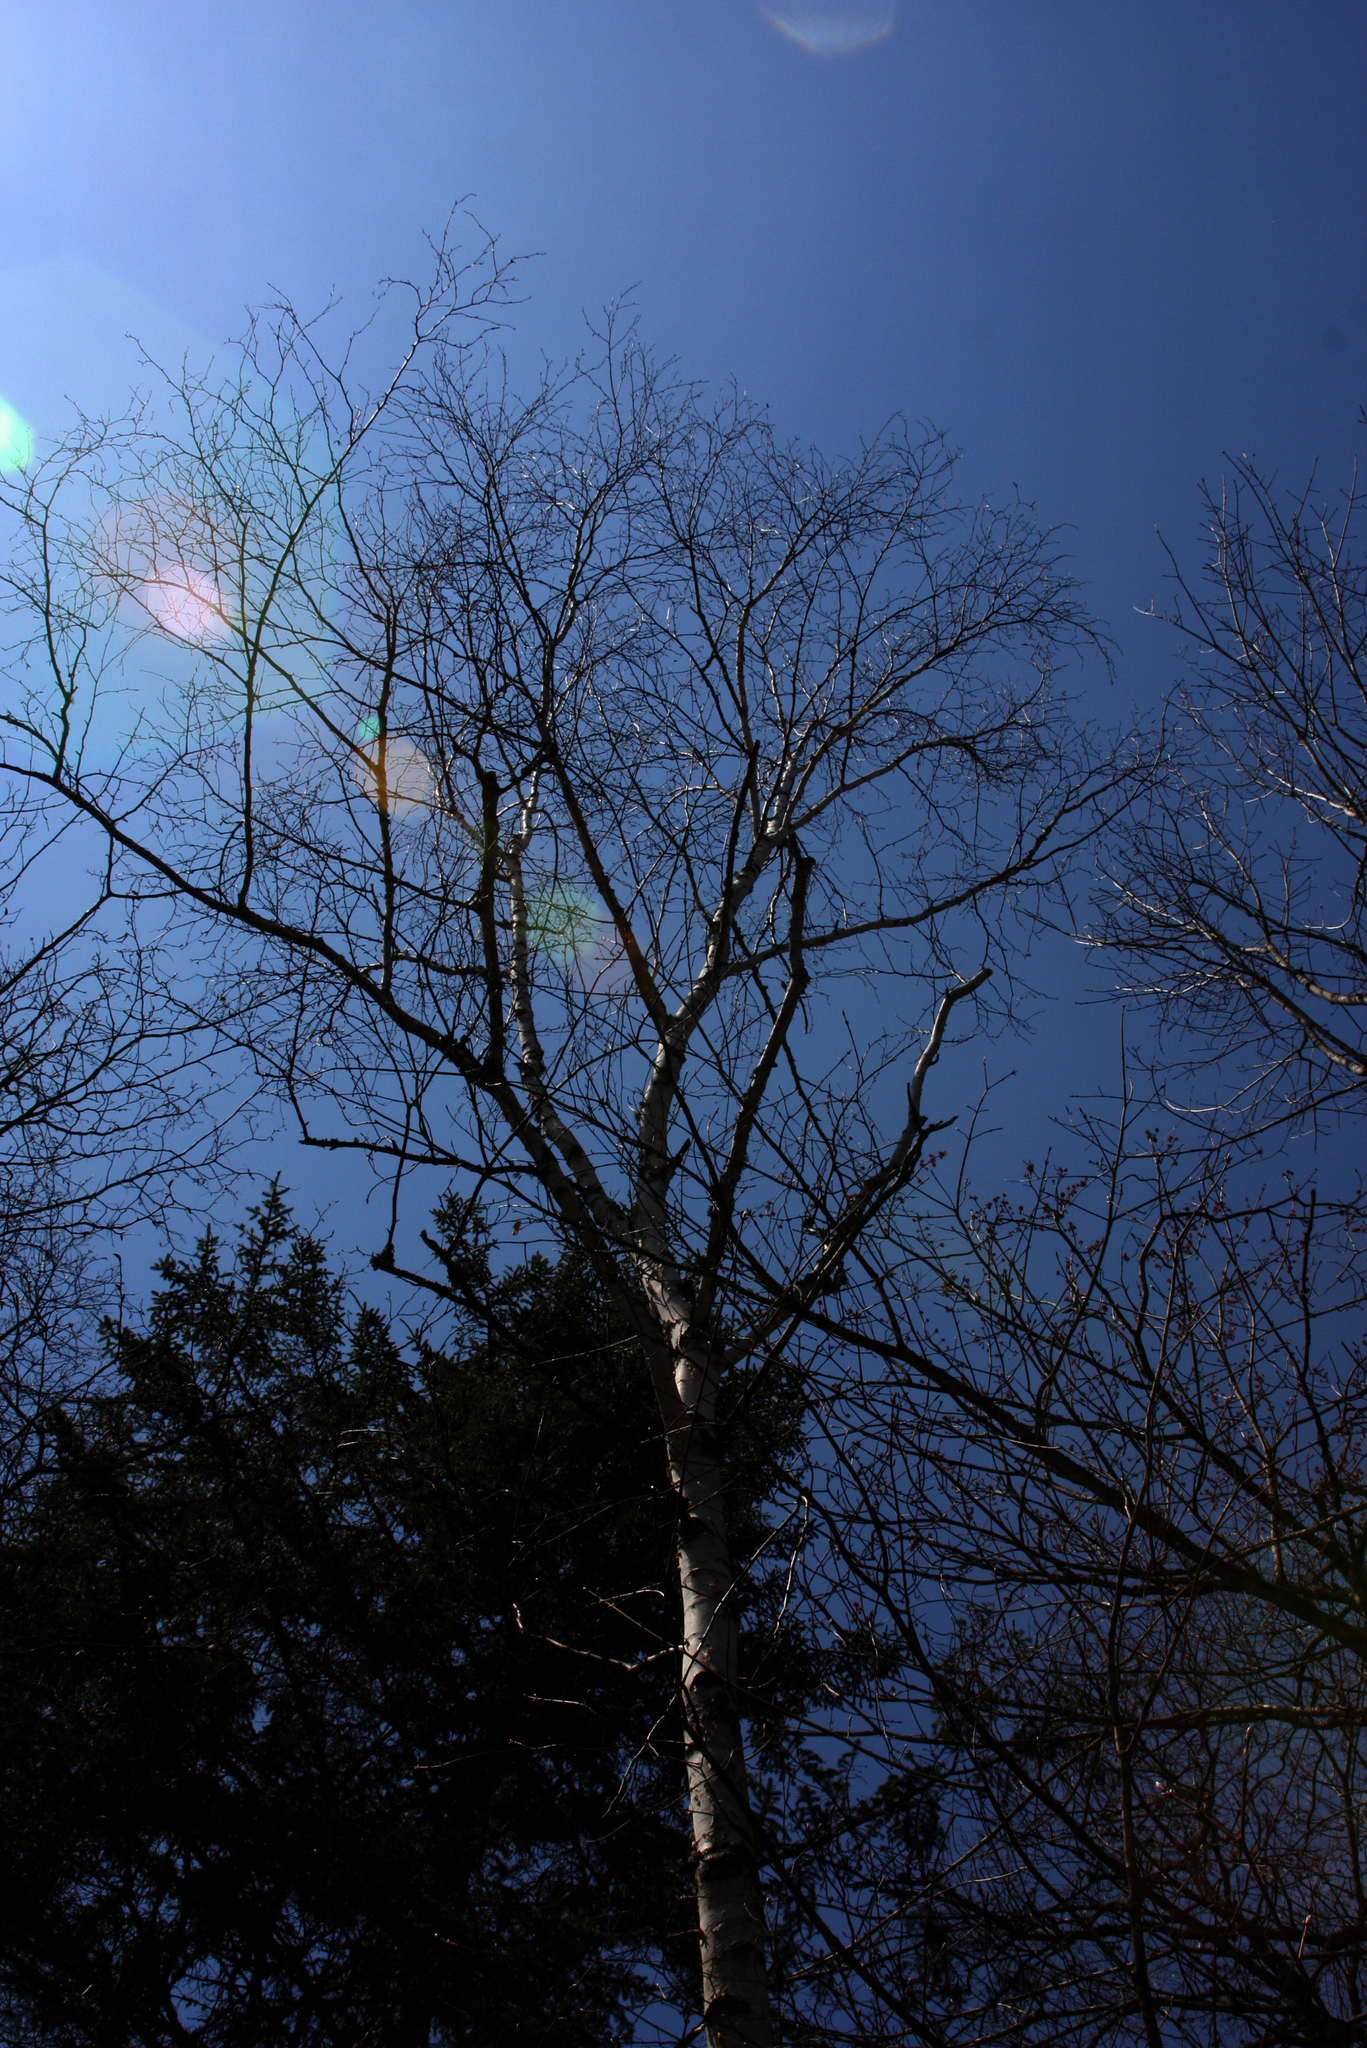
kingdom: Plantae
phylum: Tracheophyta
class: Magnoliopsida
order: Fagales
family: Betulaceae
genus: Betula
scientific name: Betula papyrifera
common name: Paper birch
